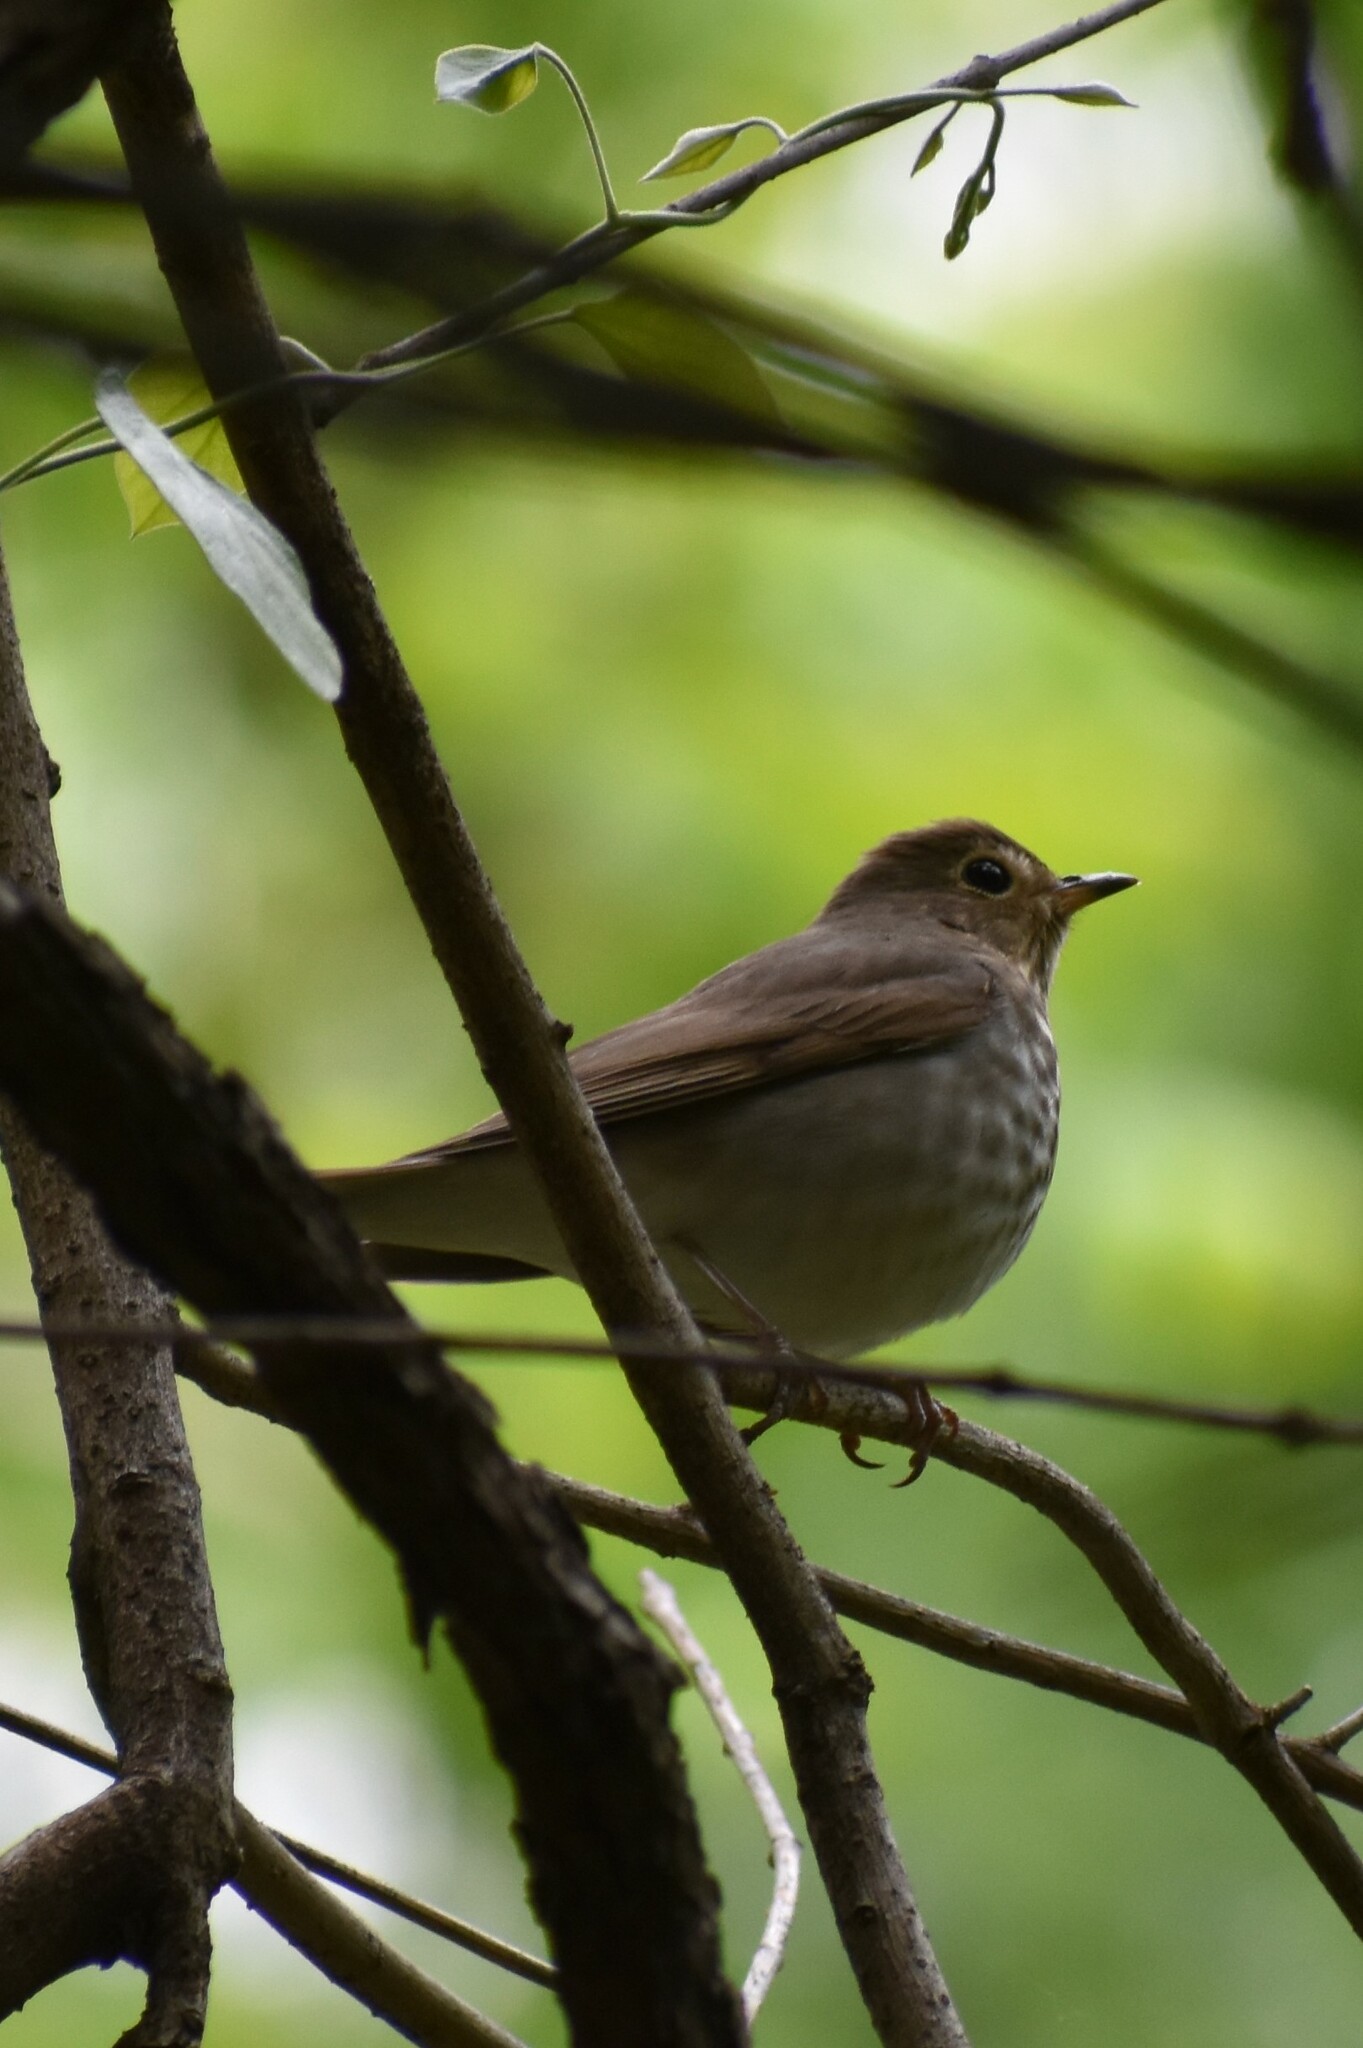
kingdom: Animalia
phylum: Chordata
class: Aves
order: Passeriformes
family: Turdidae
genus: Catharus
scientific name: Catharus ustulatus
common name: Swainson's thrush
